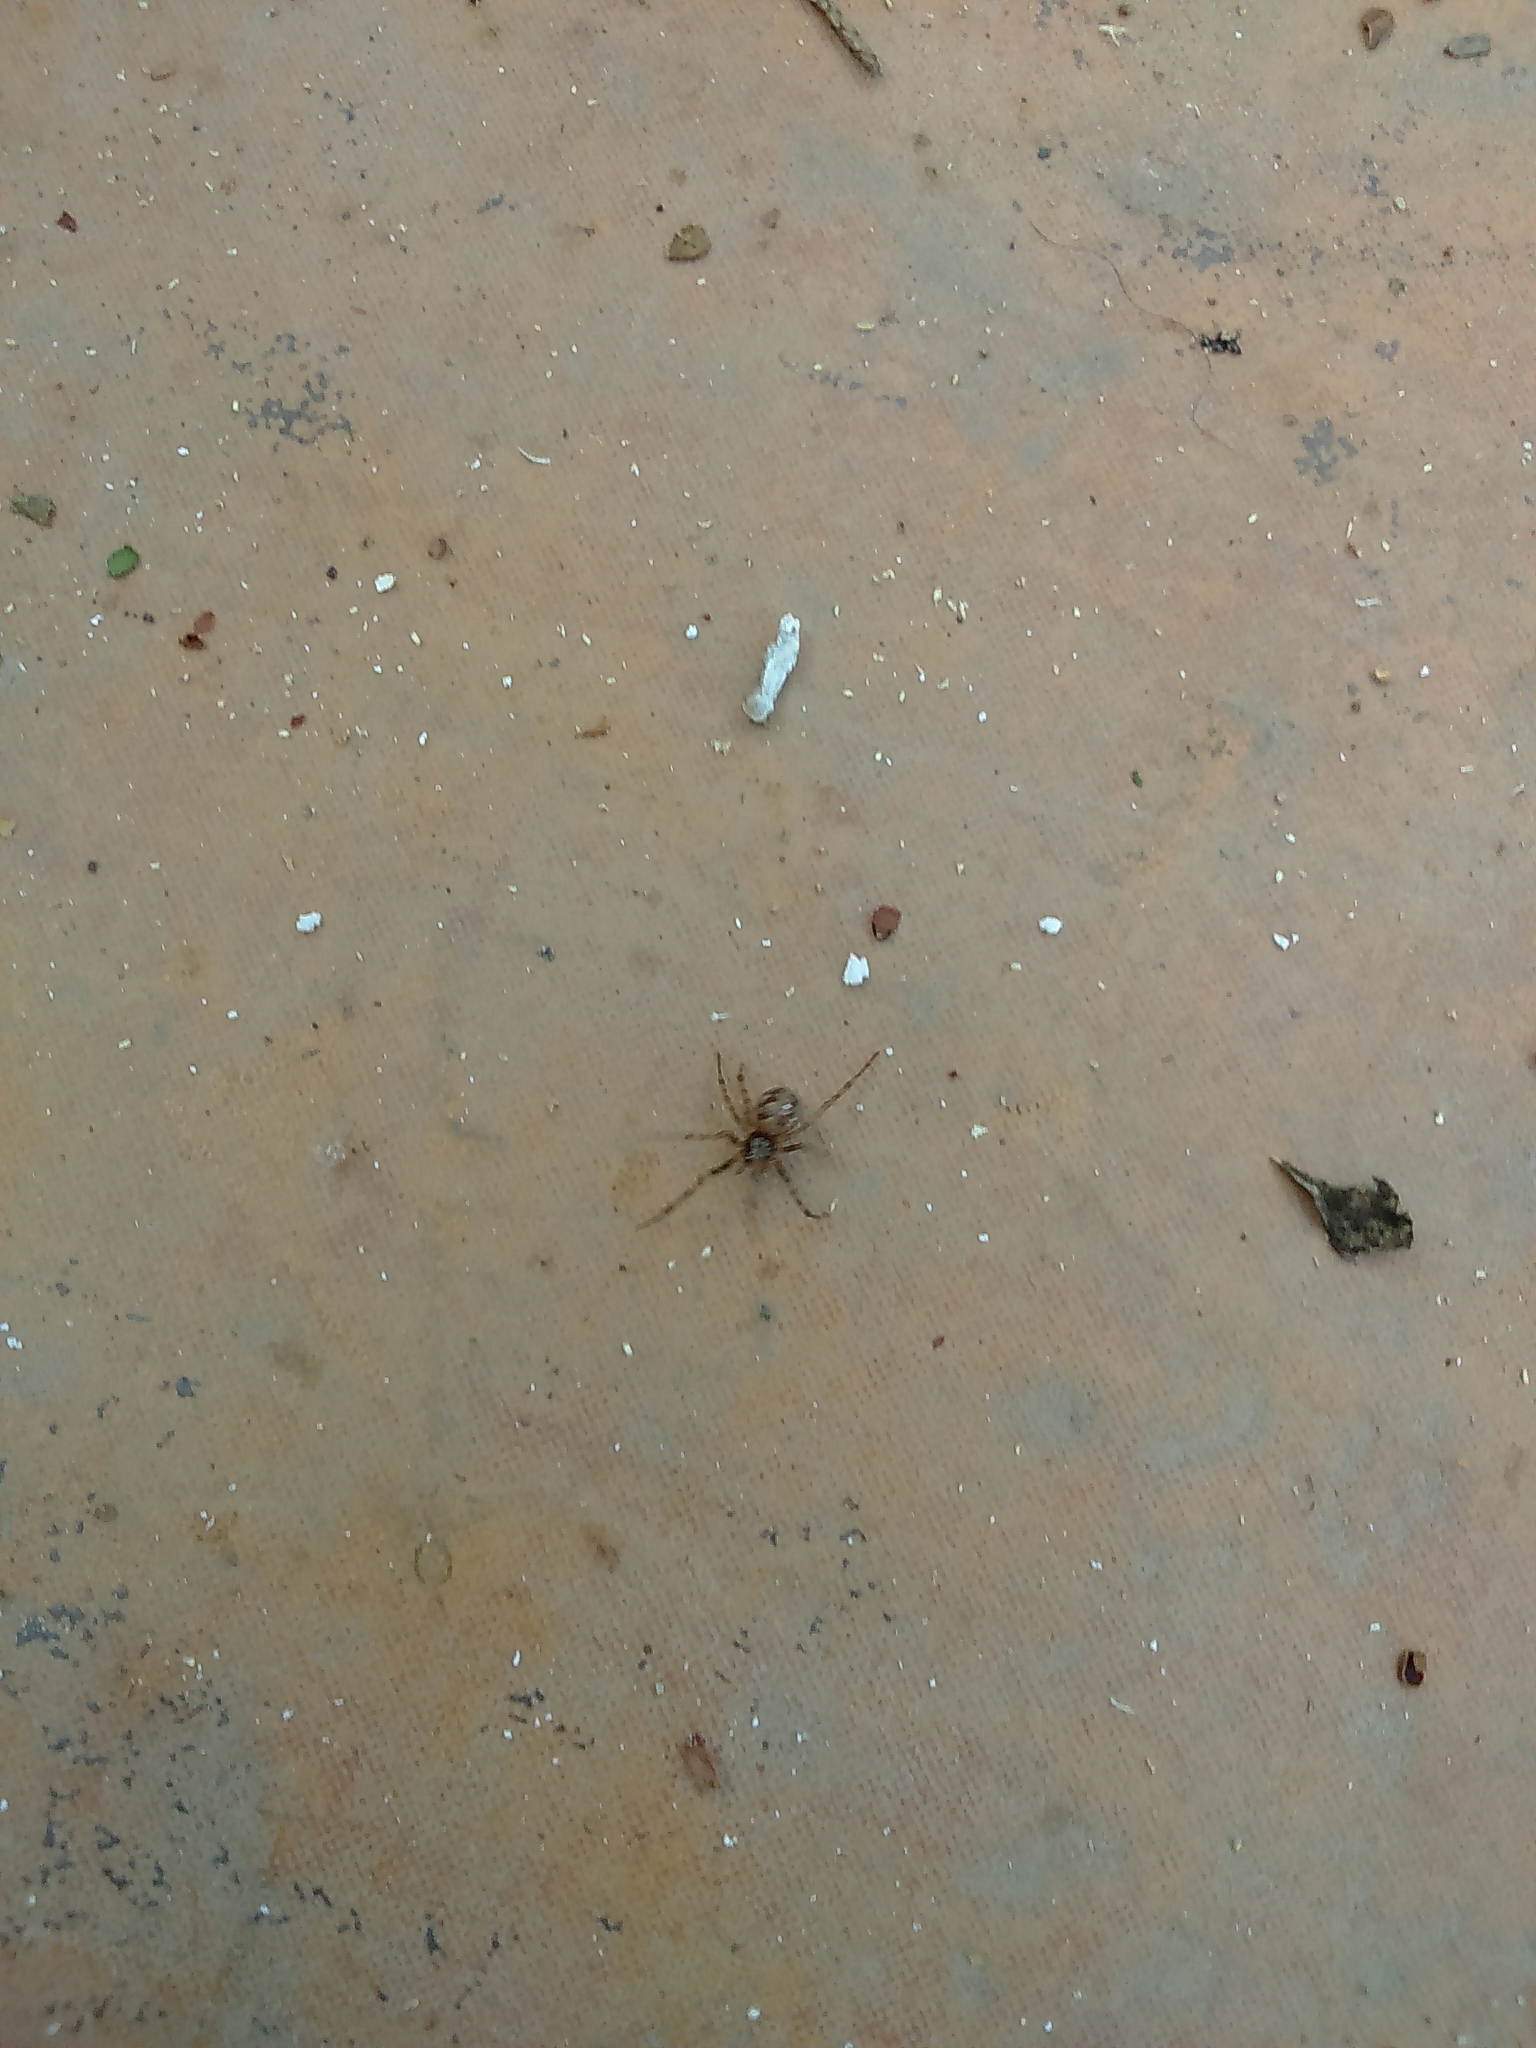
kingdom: Animalia
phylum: Arthropoda
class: Arachnida
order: Araneae
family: Theridiidae
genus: Steatoda
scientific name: Steatoda triangulosa
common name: Triangulate bud spider
